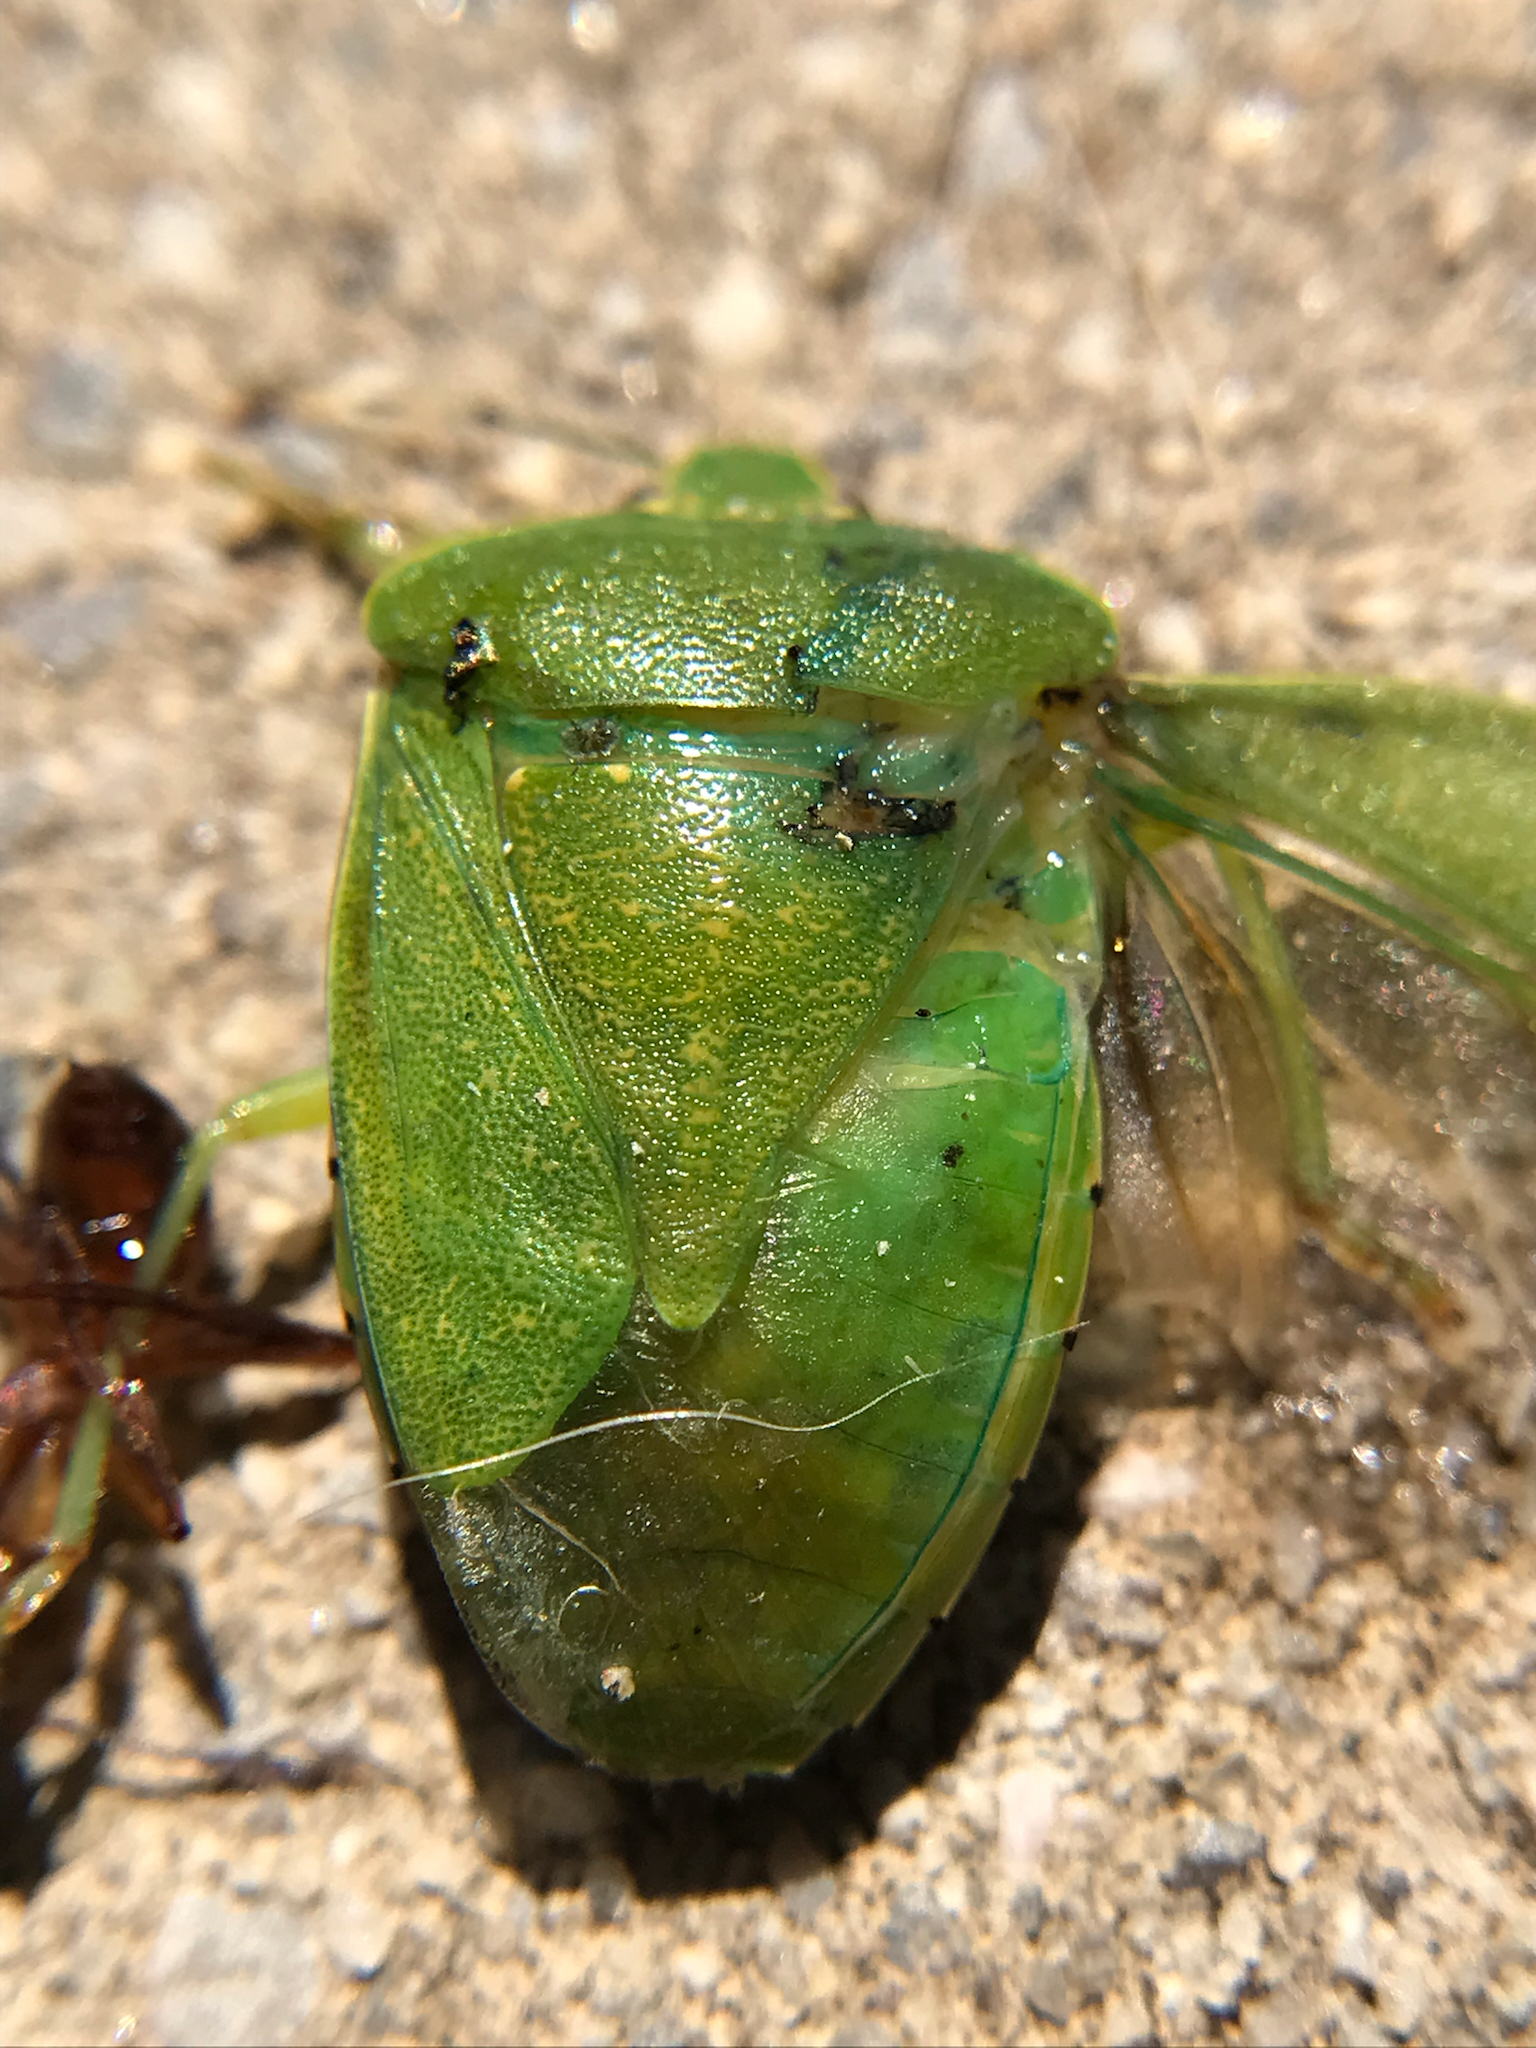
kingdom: Animalia
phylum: Arthropoda
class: Insecta
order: Hemiptera
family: Pentatomidae
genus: Chinavia
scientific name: Chinavia hilaris
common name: Green stink bug
